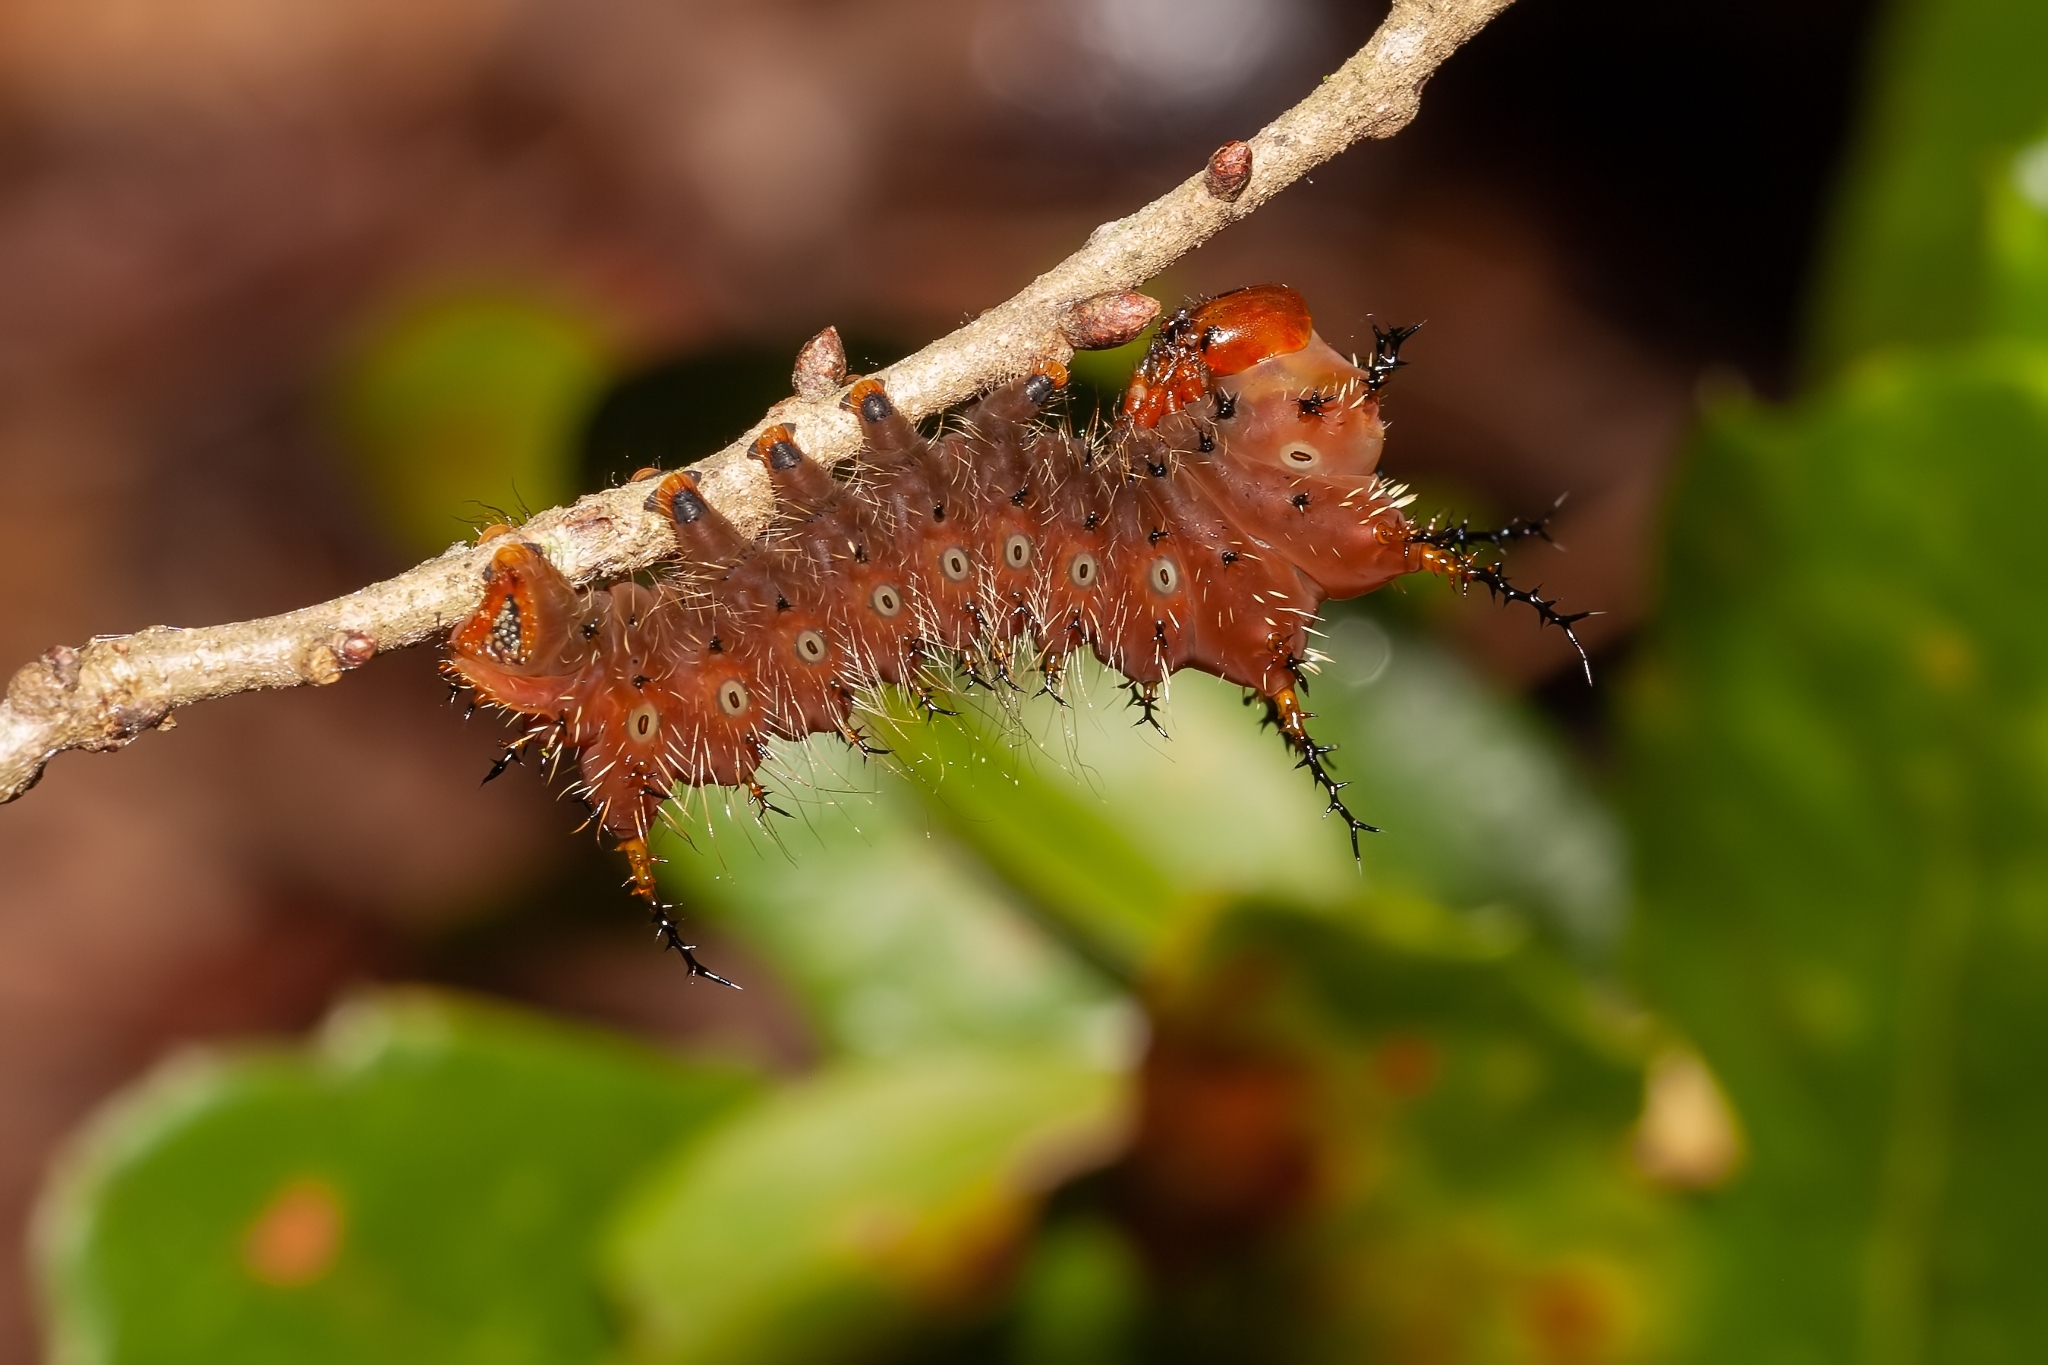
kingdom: Animalia
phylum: Arthropoda
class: Insecta
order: Lepidoptera
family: Saturniidae
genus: Eacles
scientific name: Eacles imperialis
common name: Imperial moth
